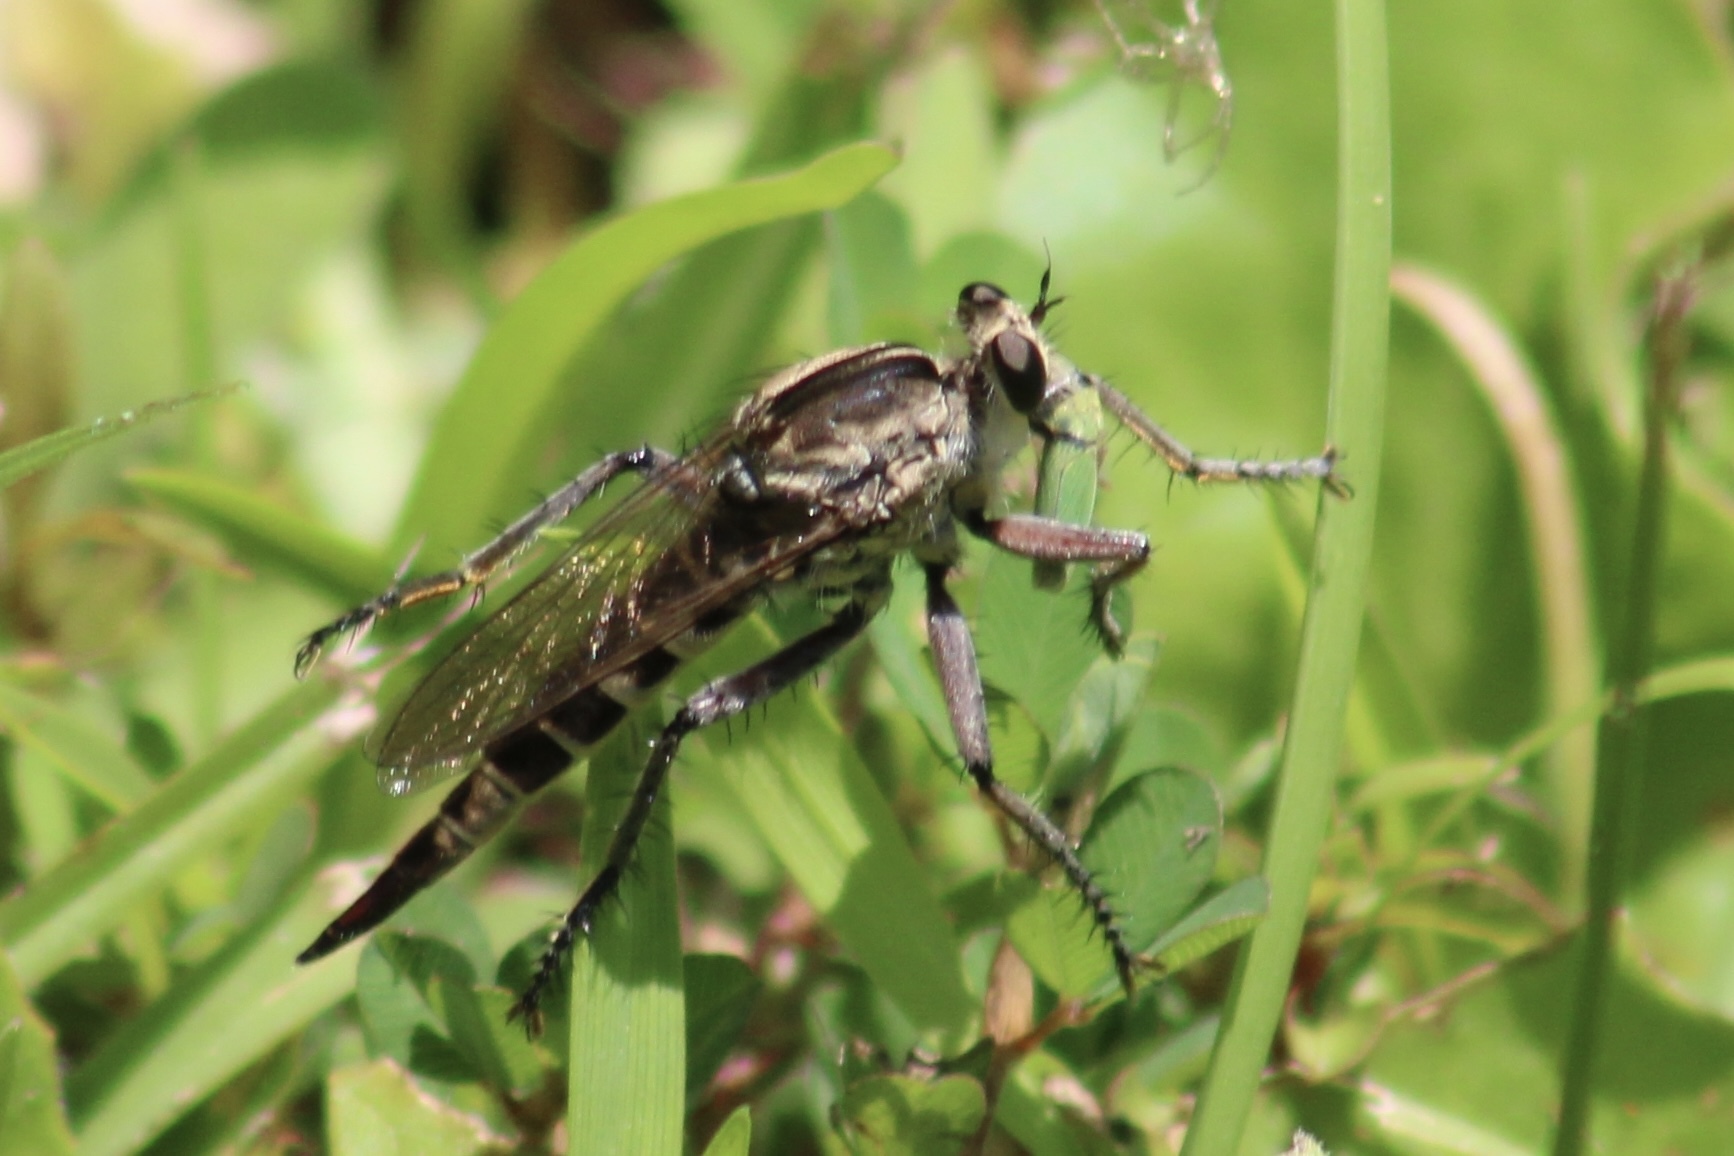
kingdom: Animalia
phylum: Arthropoda
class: Insecta
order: Diptera
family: Asilidae
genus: Triorla
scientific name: Triorla interrupta
